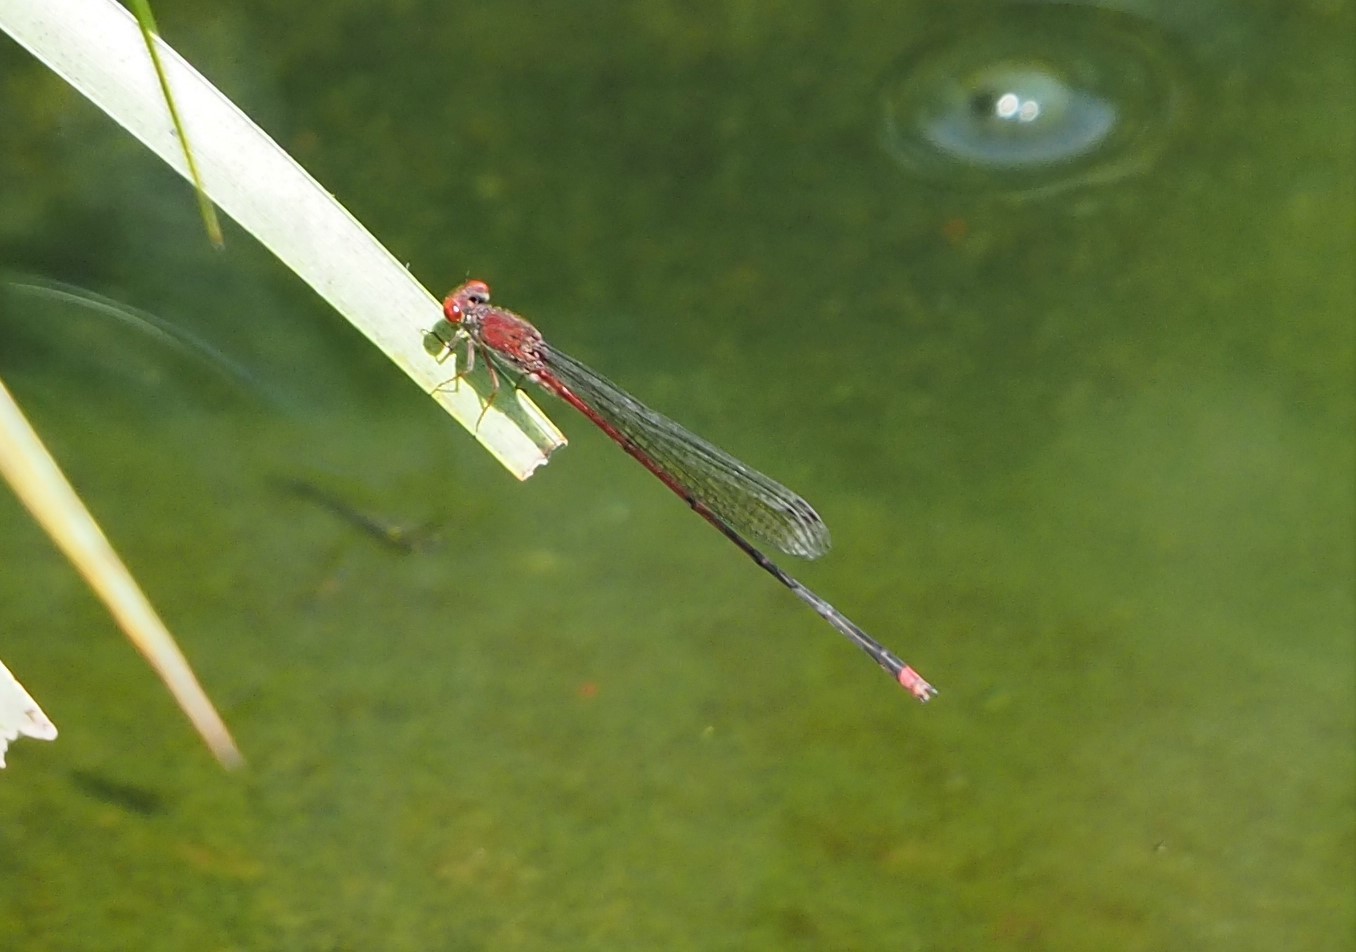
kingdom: Animalia
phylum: Arthropoda
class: Insecta
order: Odonata
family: Coenagrionidae
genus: Pseudagrion
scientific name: Pseudagrion pilidorsum
